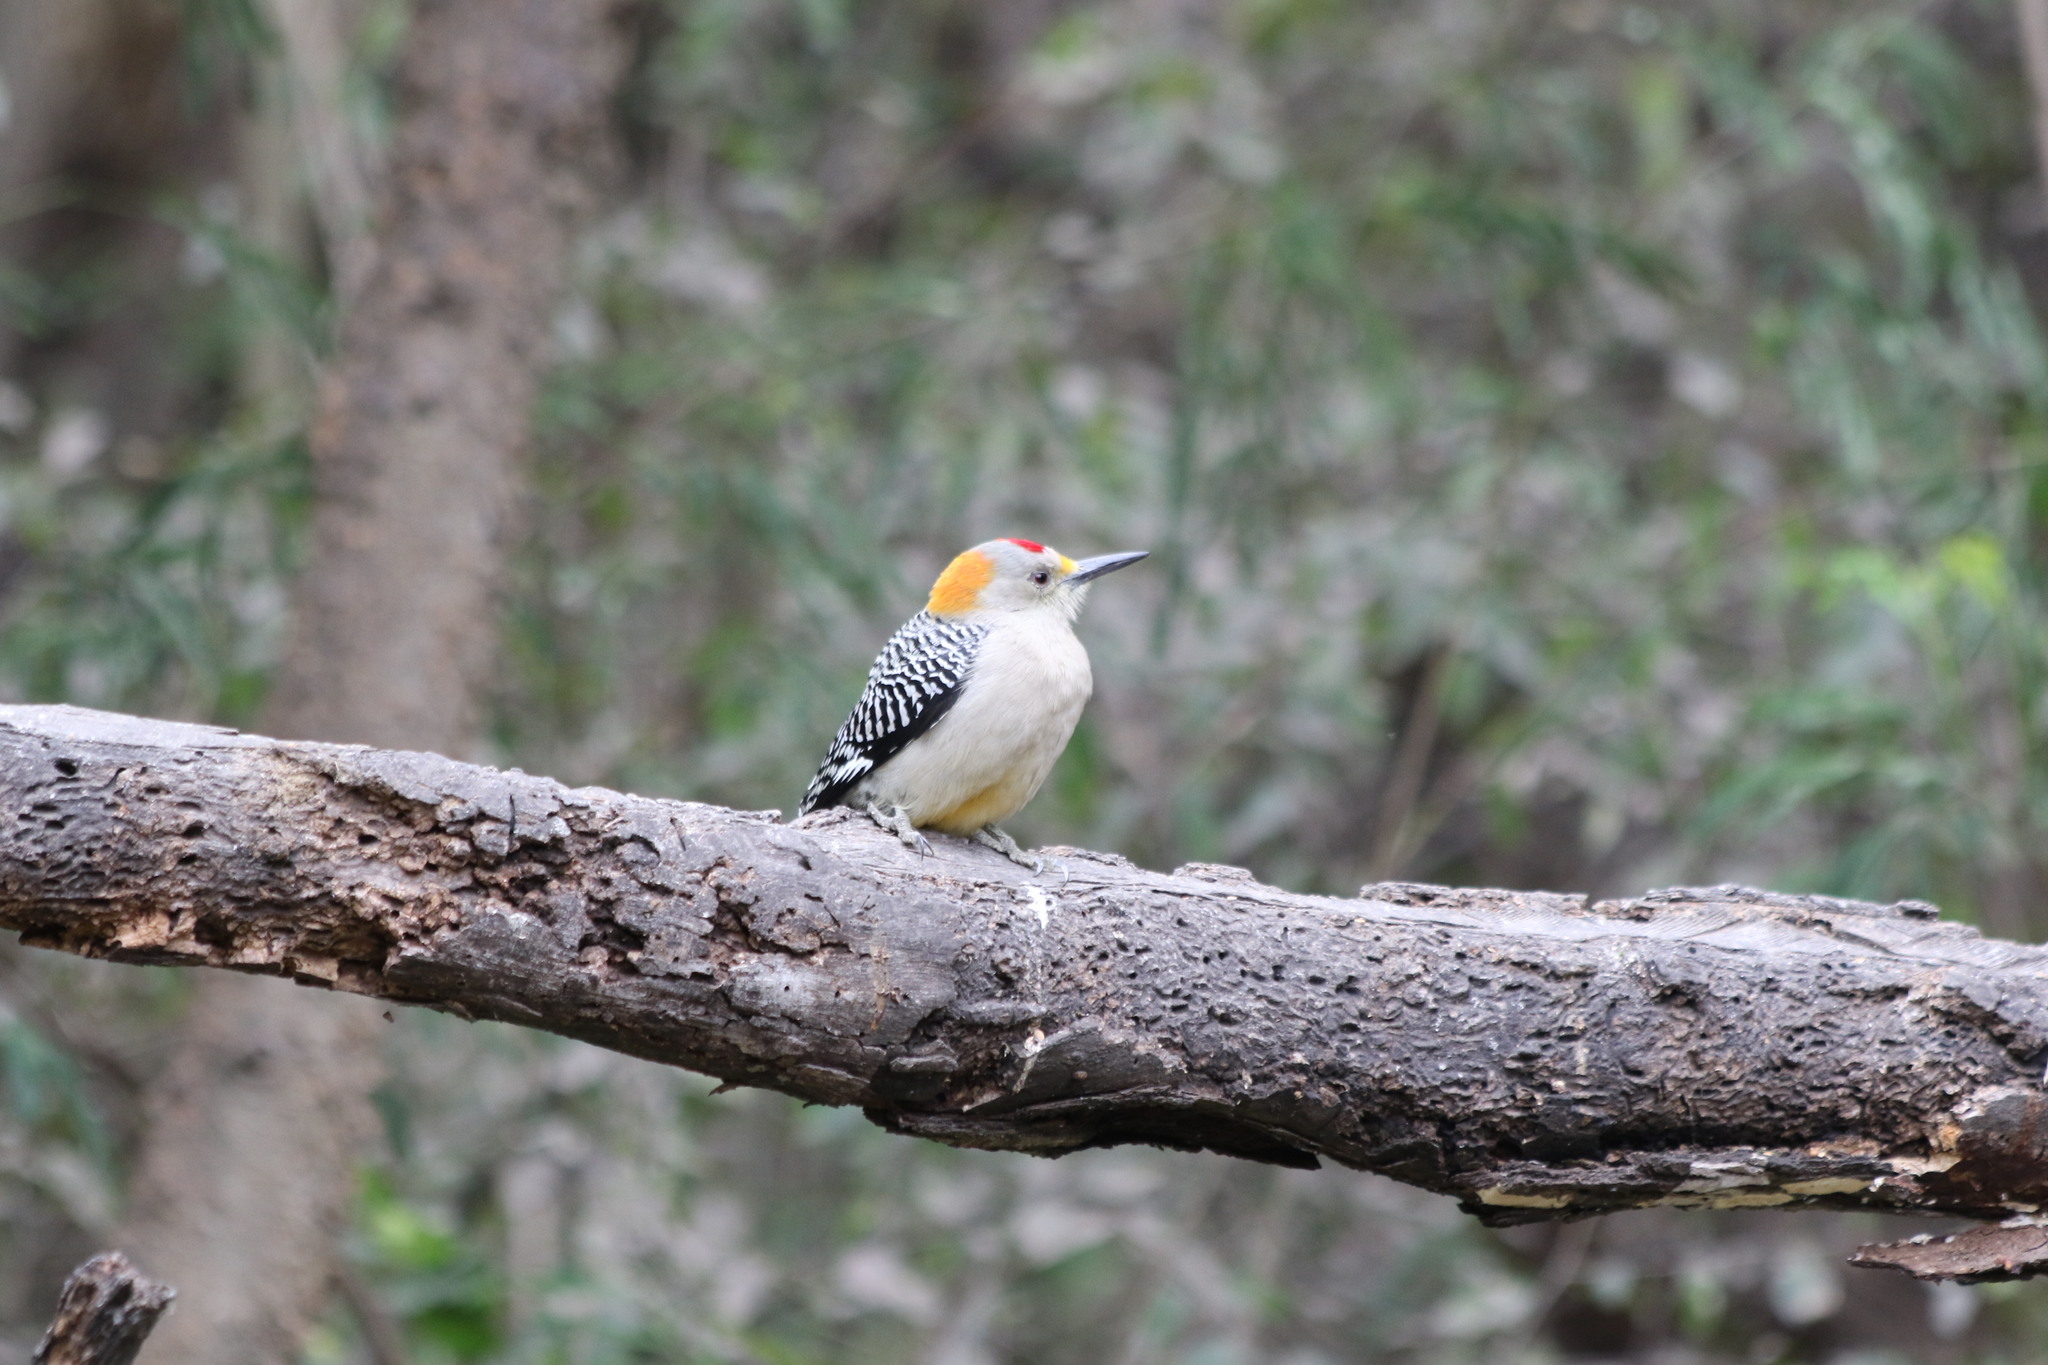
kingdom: Animalia
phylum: Chordata
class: Aves
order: Piciformes
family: Picidae
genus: Melanerpes
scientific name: Melanerpes aurifrons
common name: Golden-fronted woodpecker
